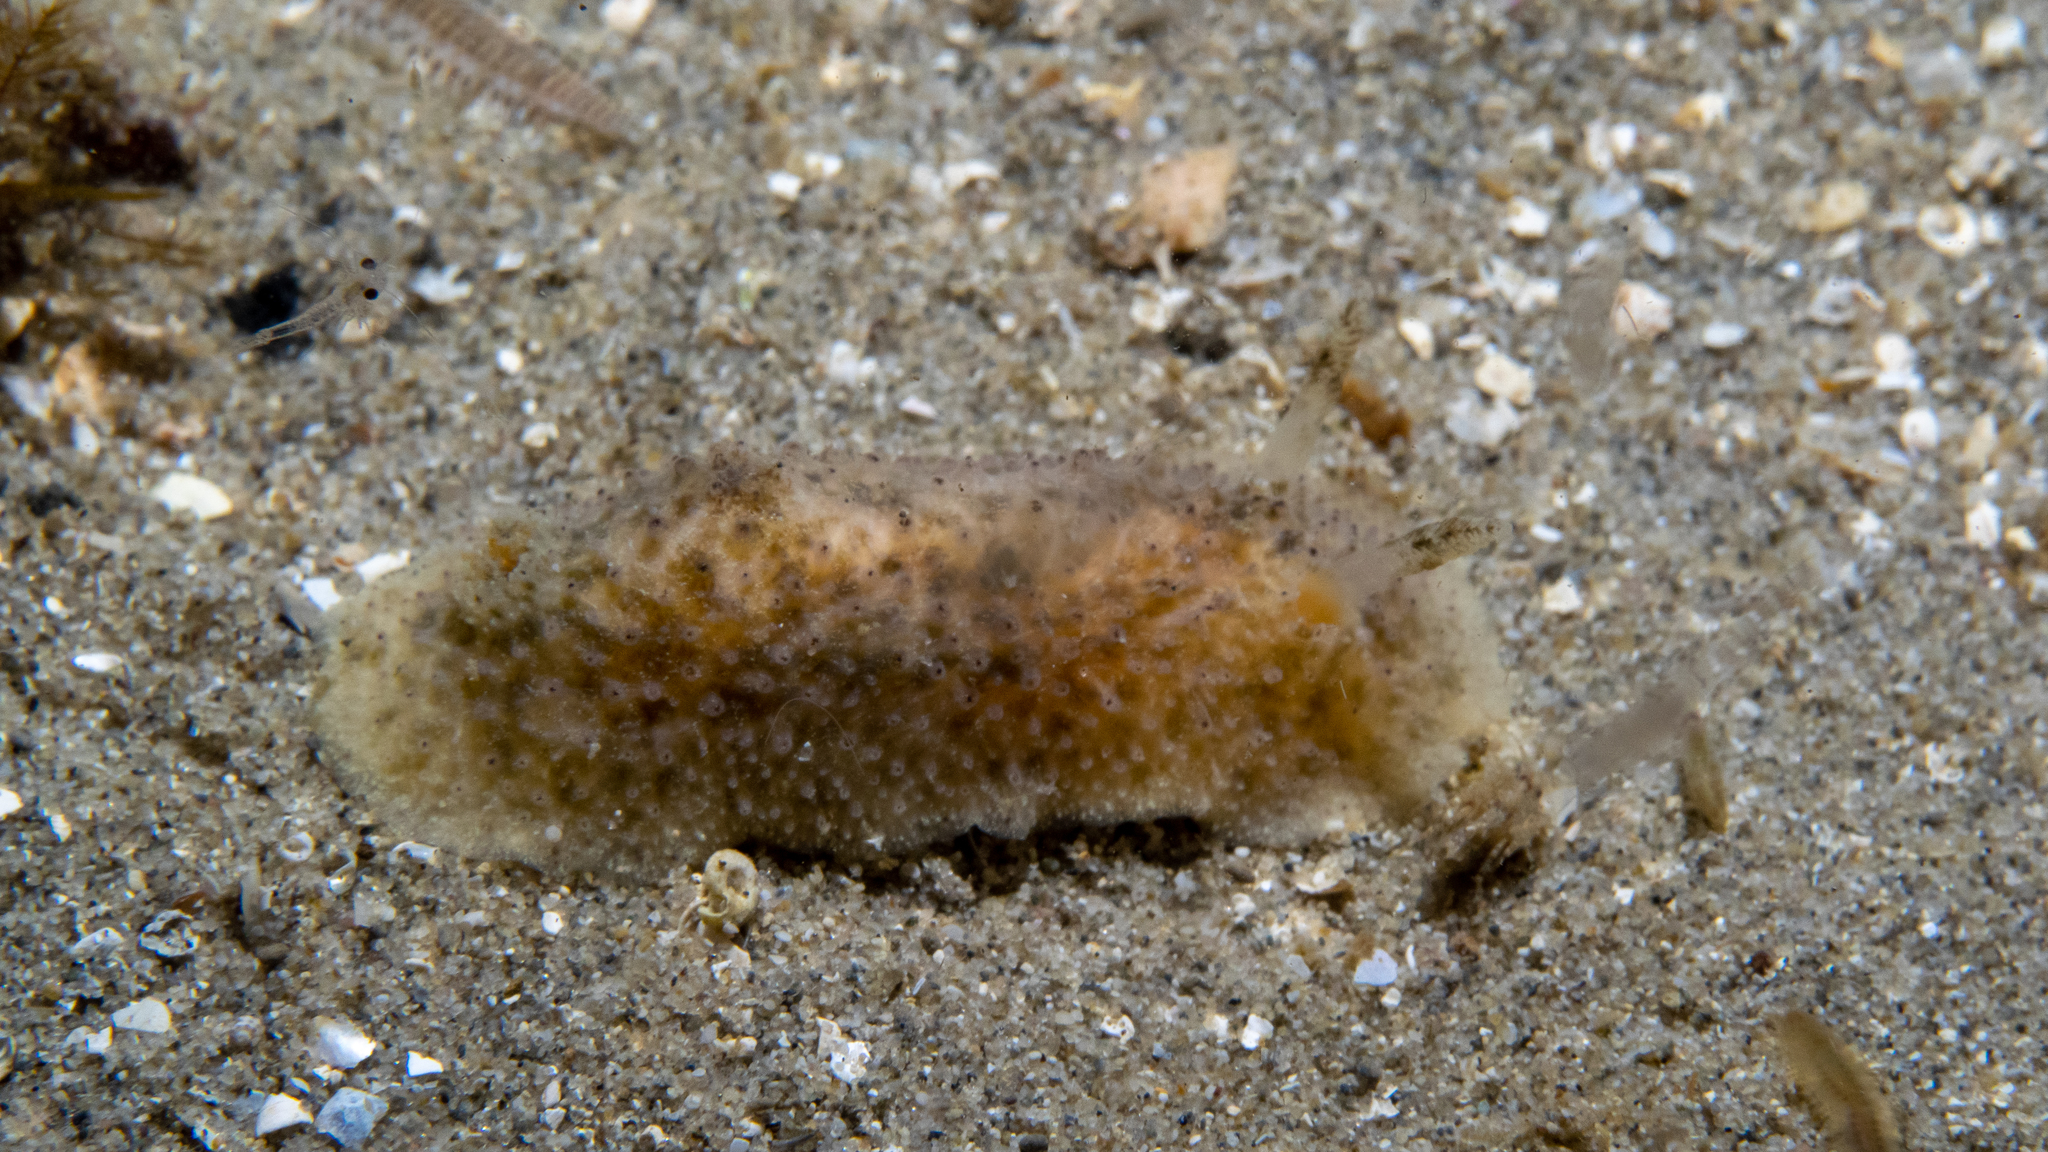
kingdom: Animalia
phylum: Mollusca
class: Gastropoda
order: Nudibranchia
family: Dorididae
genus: Doris
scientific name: Doris cameroni
